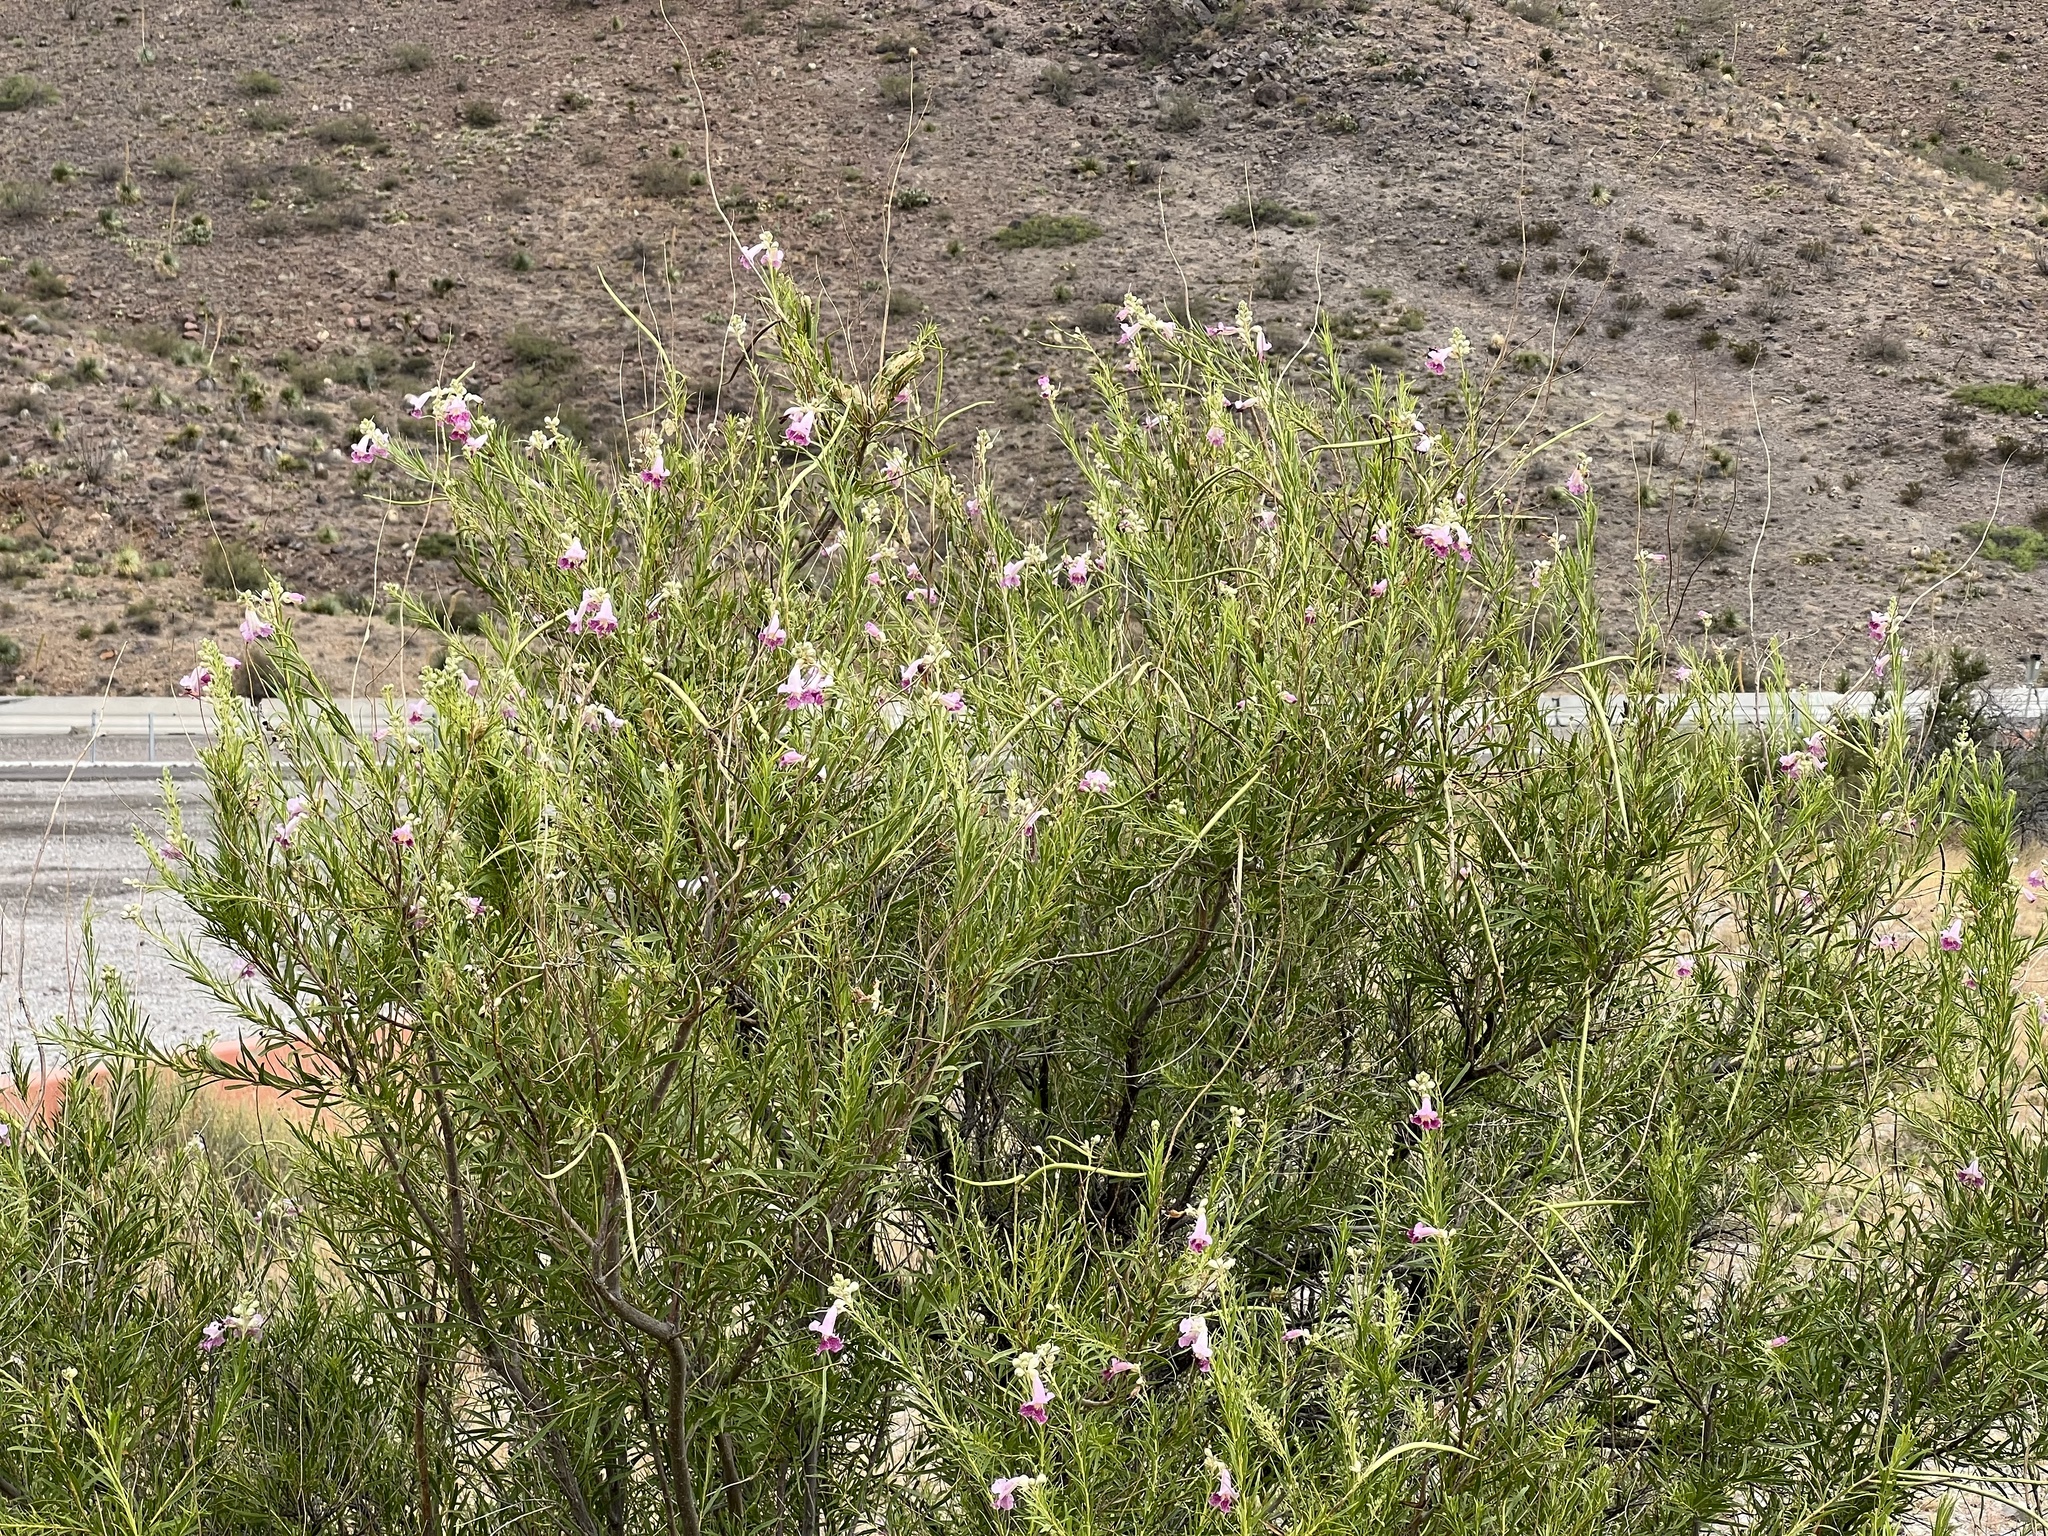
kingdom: Plantae
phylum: Tracheophyta
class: Magnoliopsida
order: Lamiales
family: Bignoniaceae
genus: Chilopsis
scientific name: Chilopsis linearis
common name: Desert-willow
